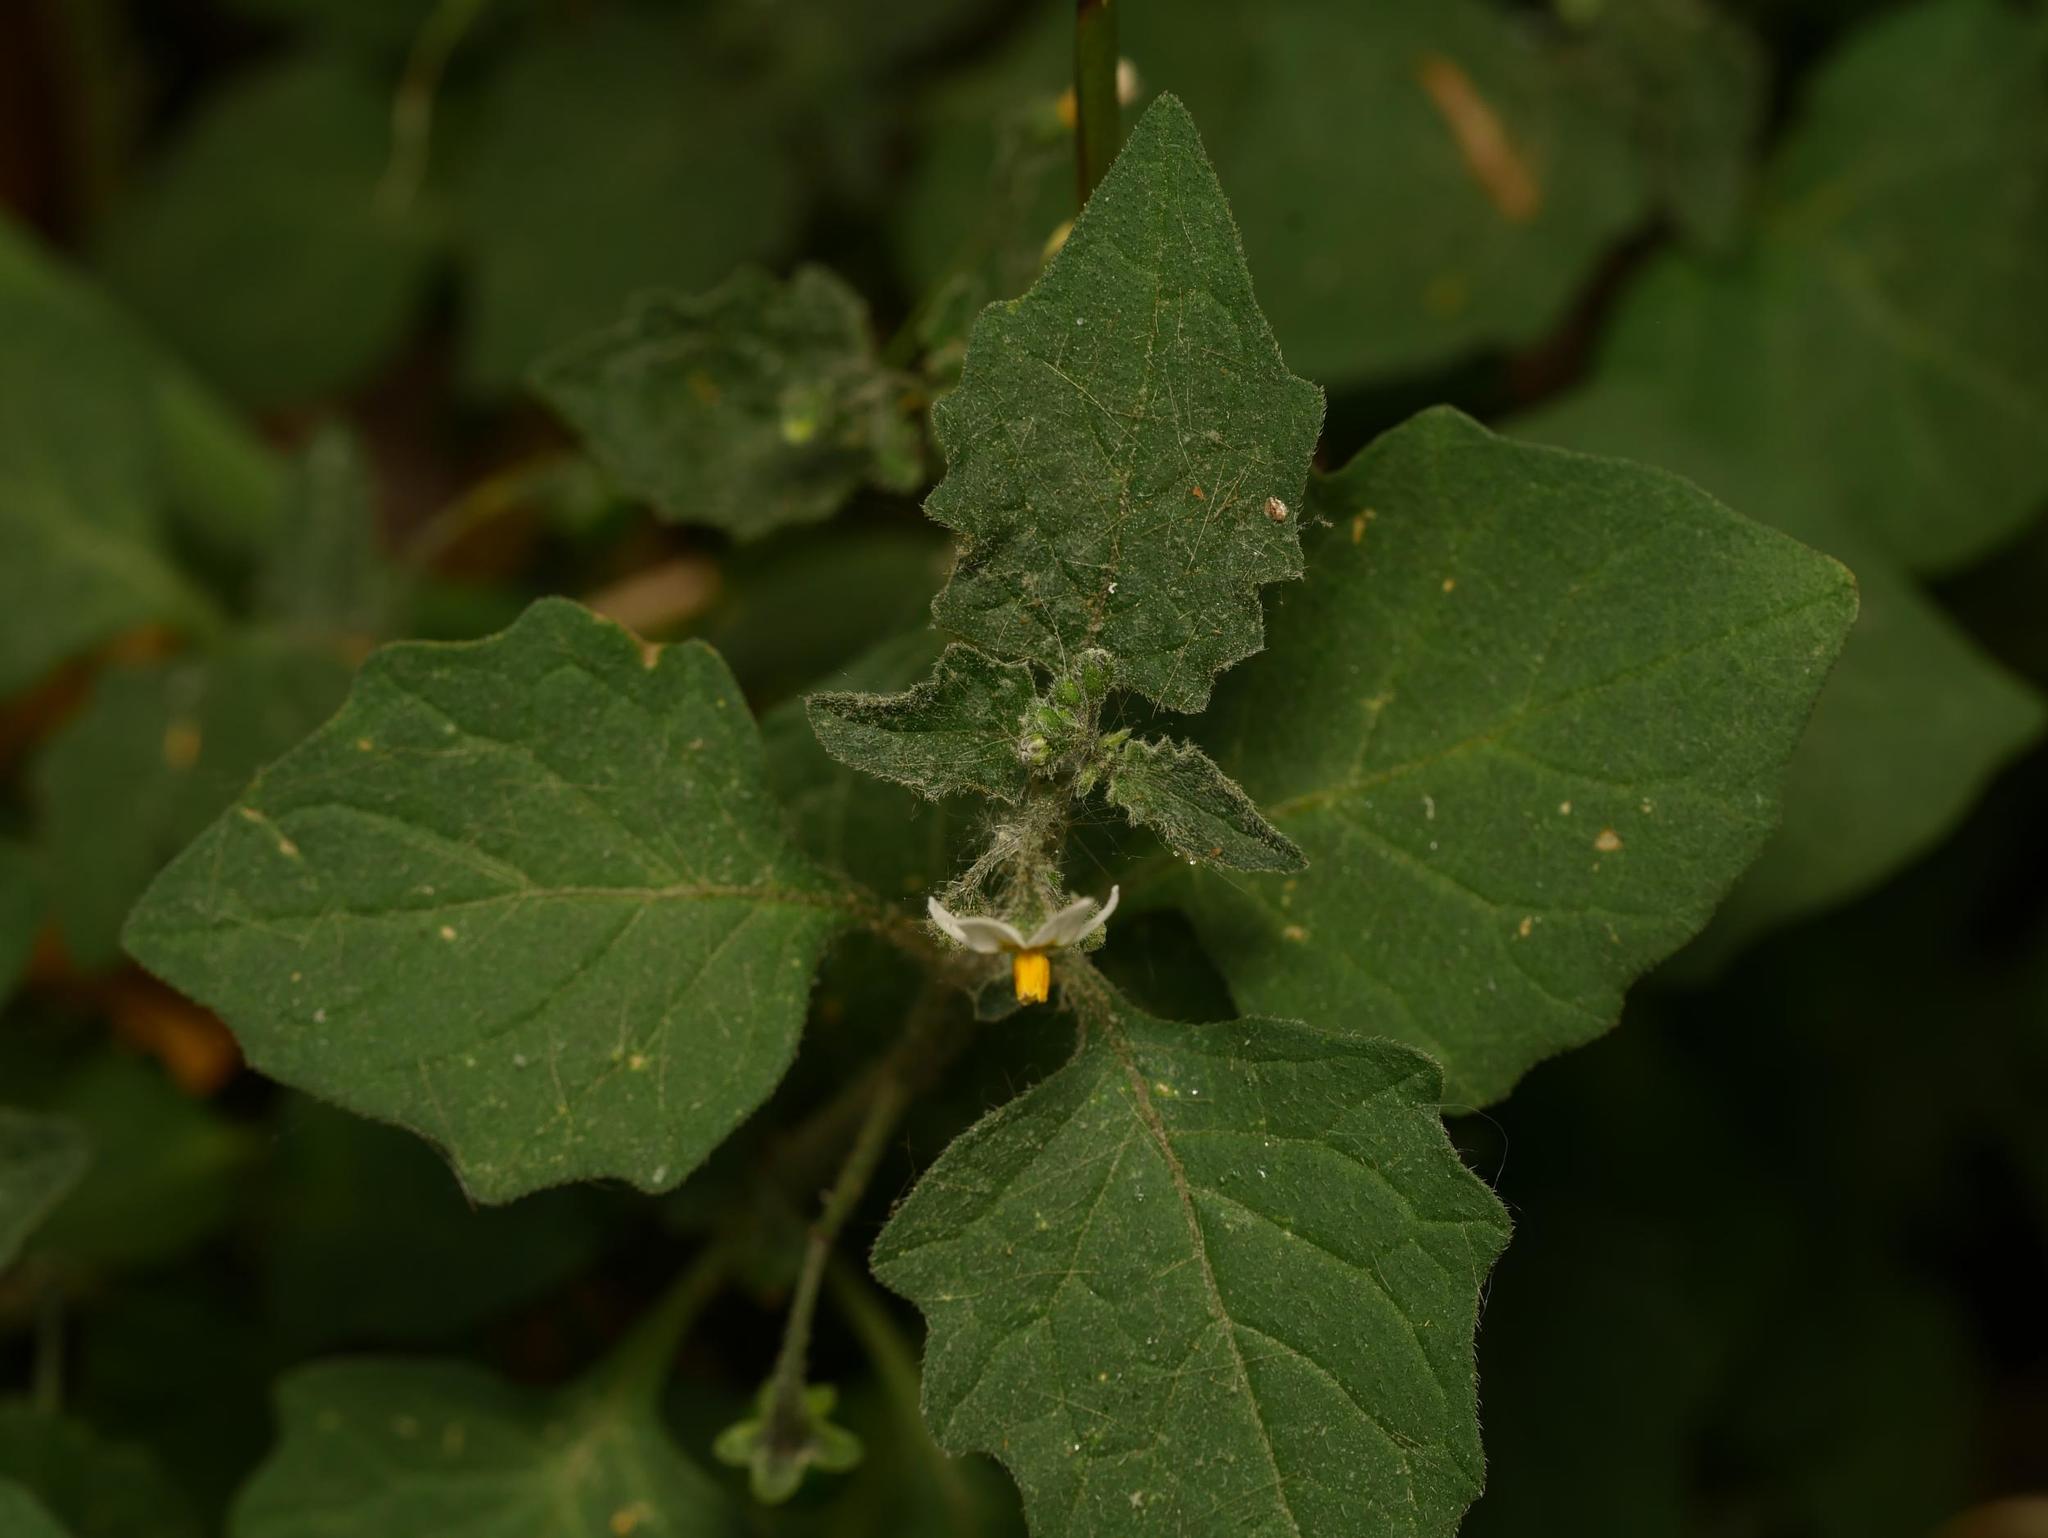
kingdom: Plantae
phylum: Tracheophyta
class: Magnoliopsida
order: Solanales
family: Solanaceae
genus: Solanum
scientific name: Solanum nigrum
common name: Black nightshade
